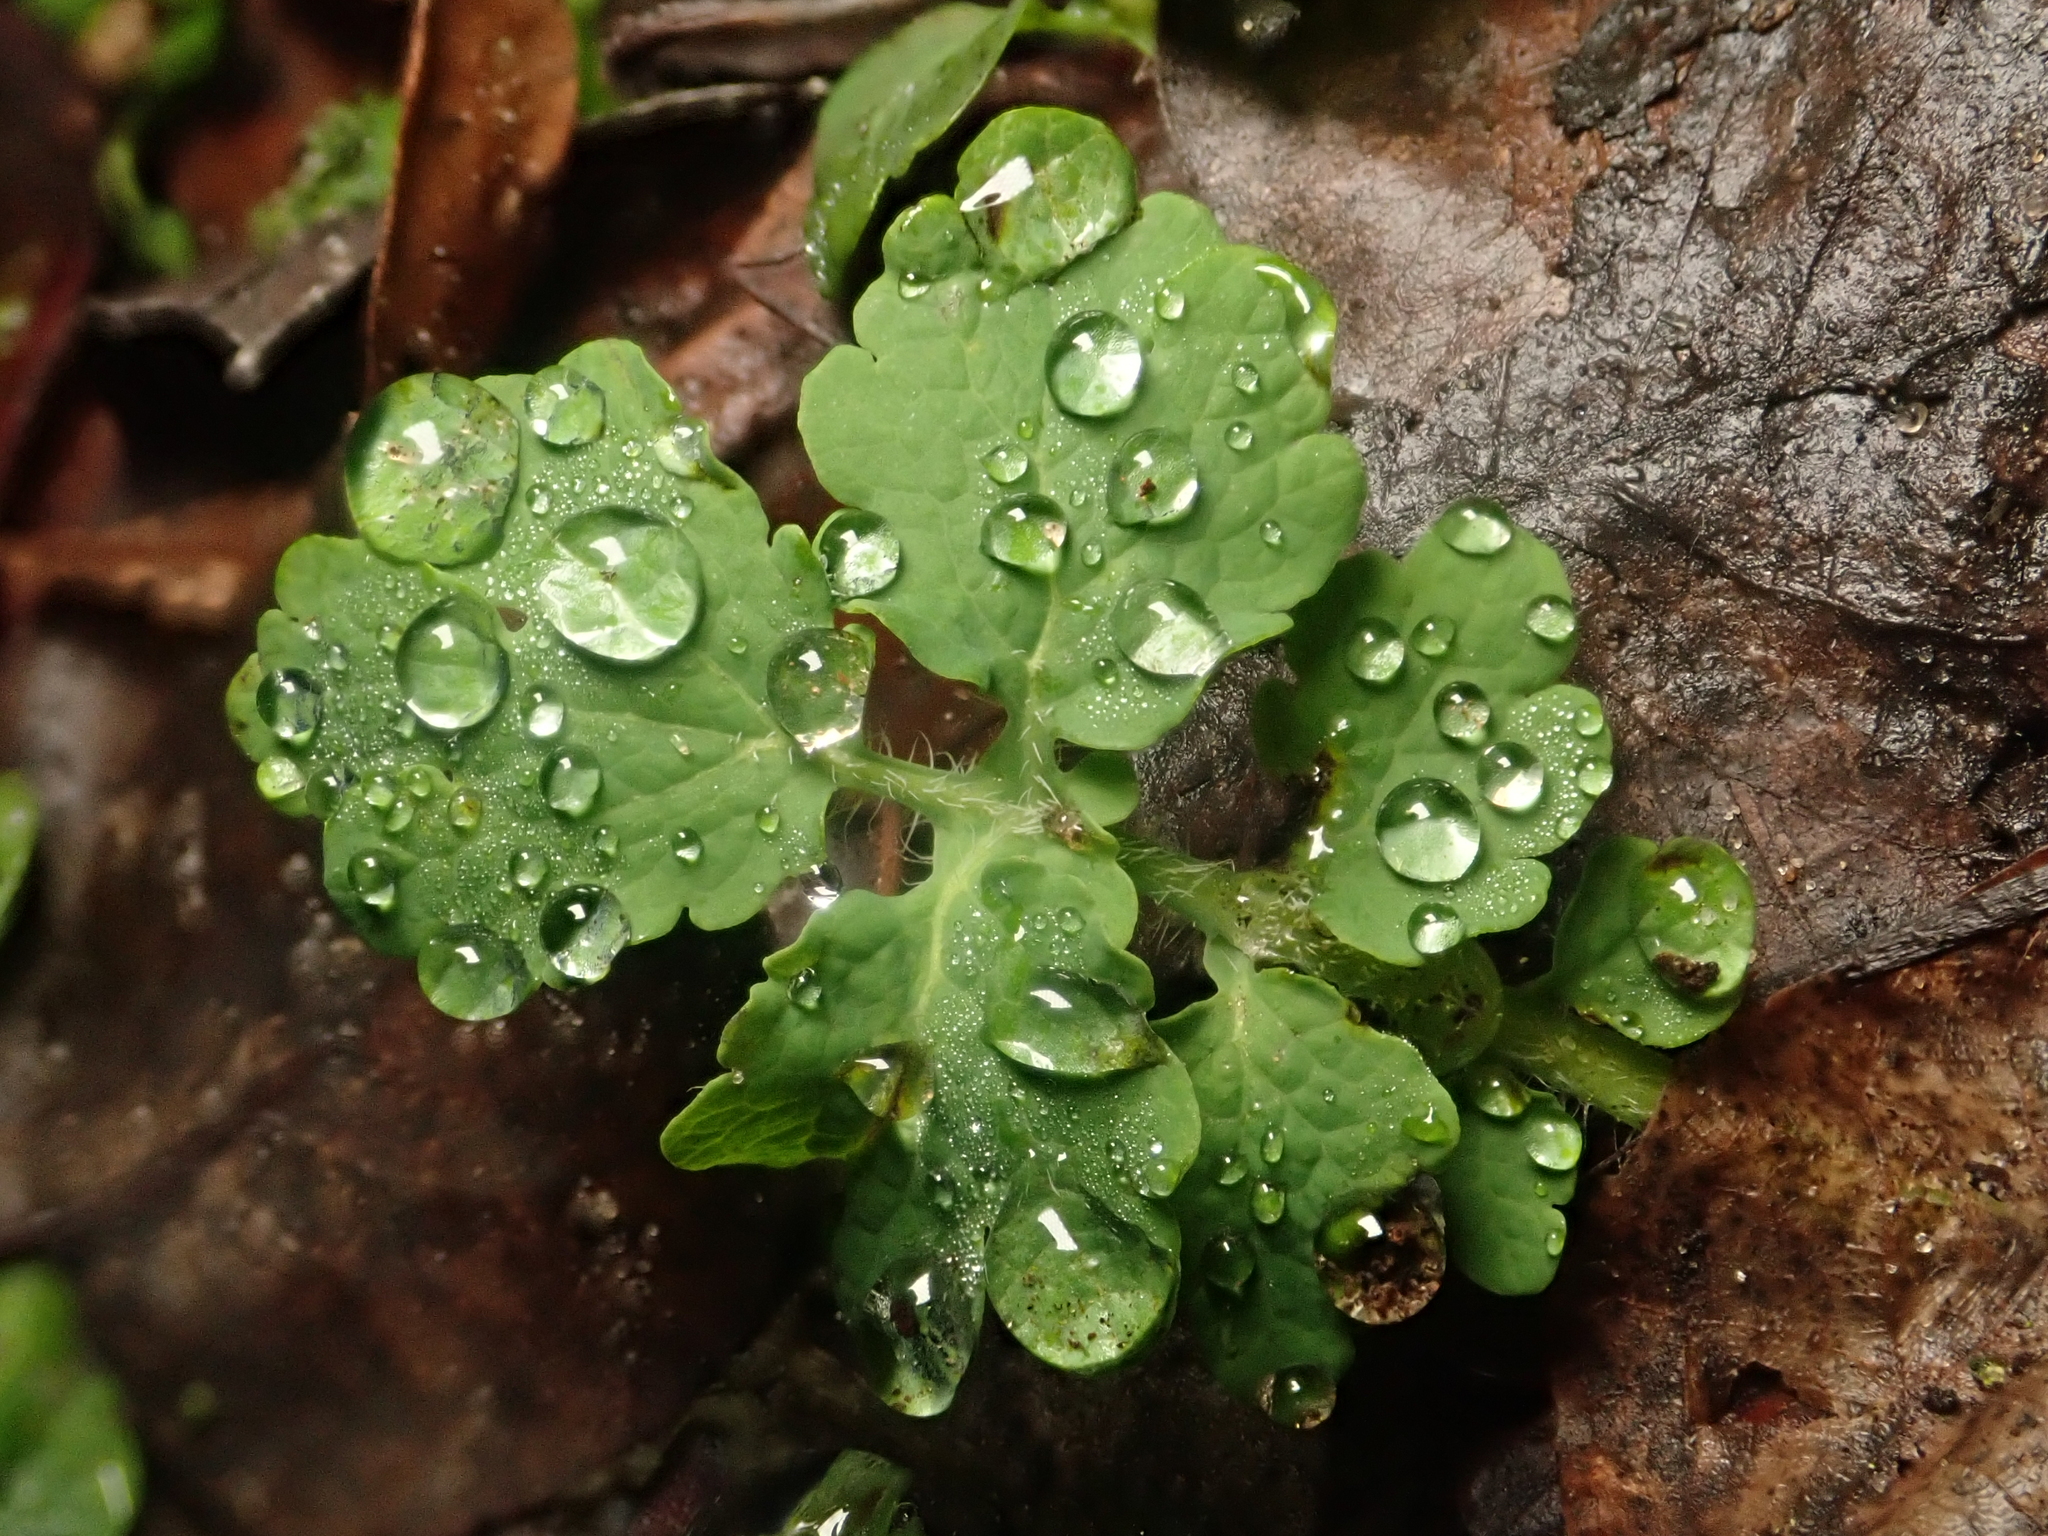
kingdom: Plantae
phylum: Tracheophyta
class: Magnoliopsida
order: Ranunculales
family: Papaveraceae
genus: Chelidonium
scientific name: Chelidonium majus
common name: Greater celandine
